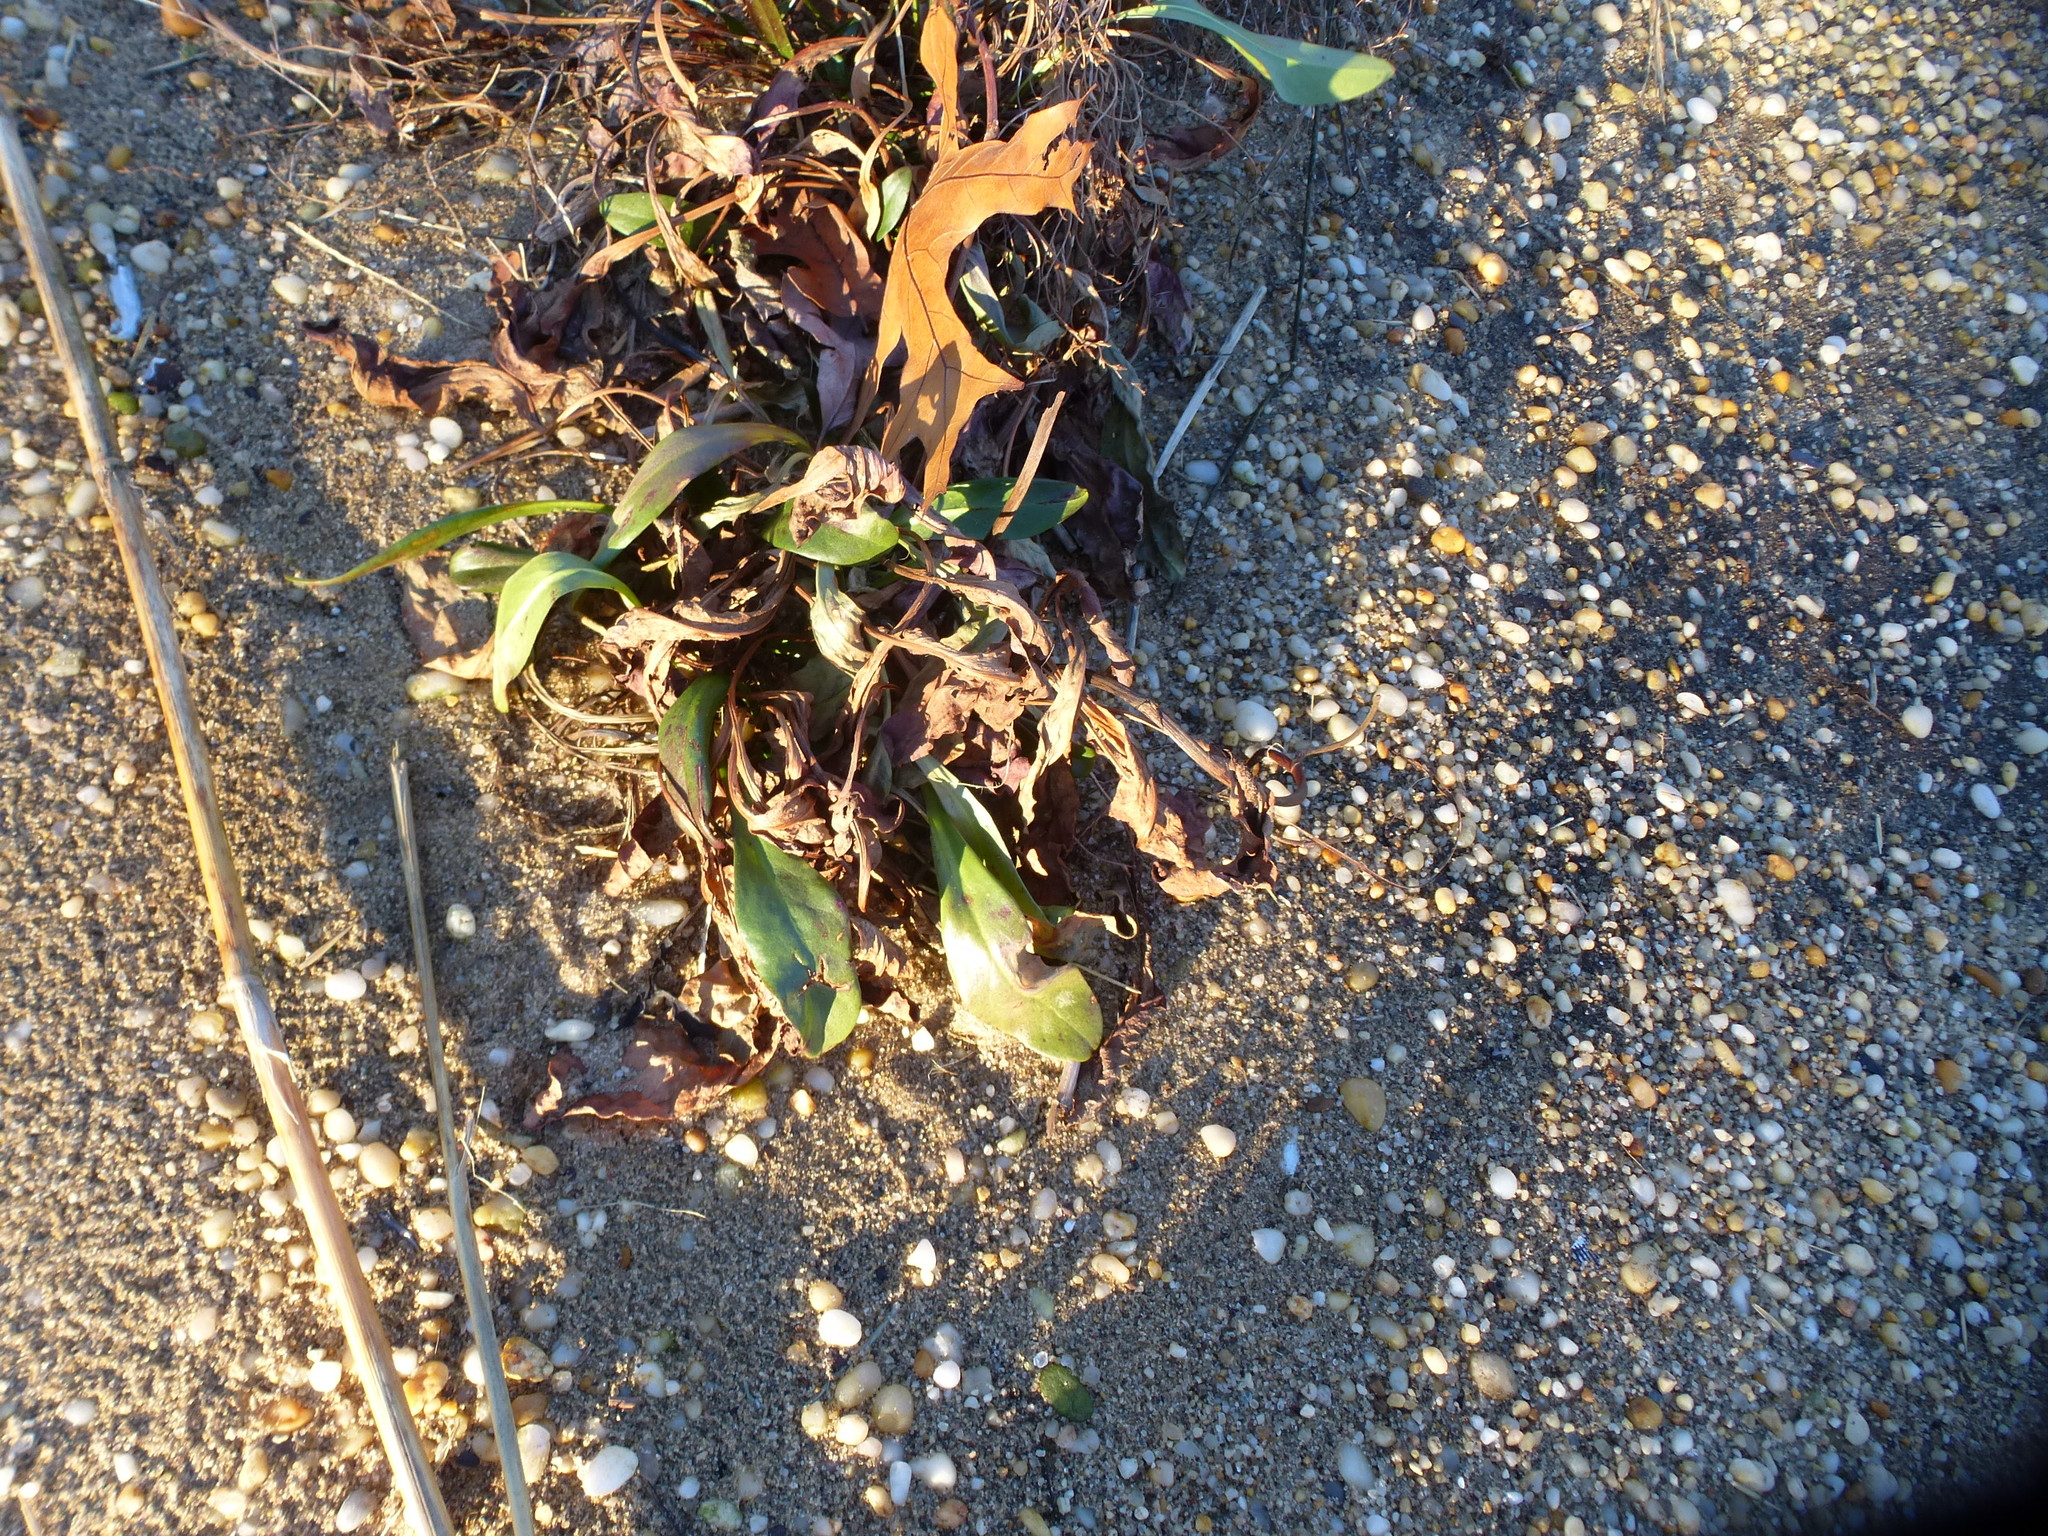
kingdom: Plantae
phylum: Tracheophyta
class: Magnoliopsida
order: Asterales
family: Asteraceae
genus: Solidago
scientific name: Solidago sempervirens
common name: Salt-marsh goldenrod
